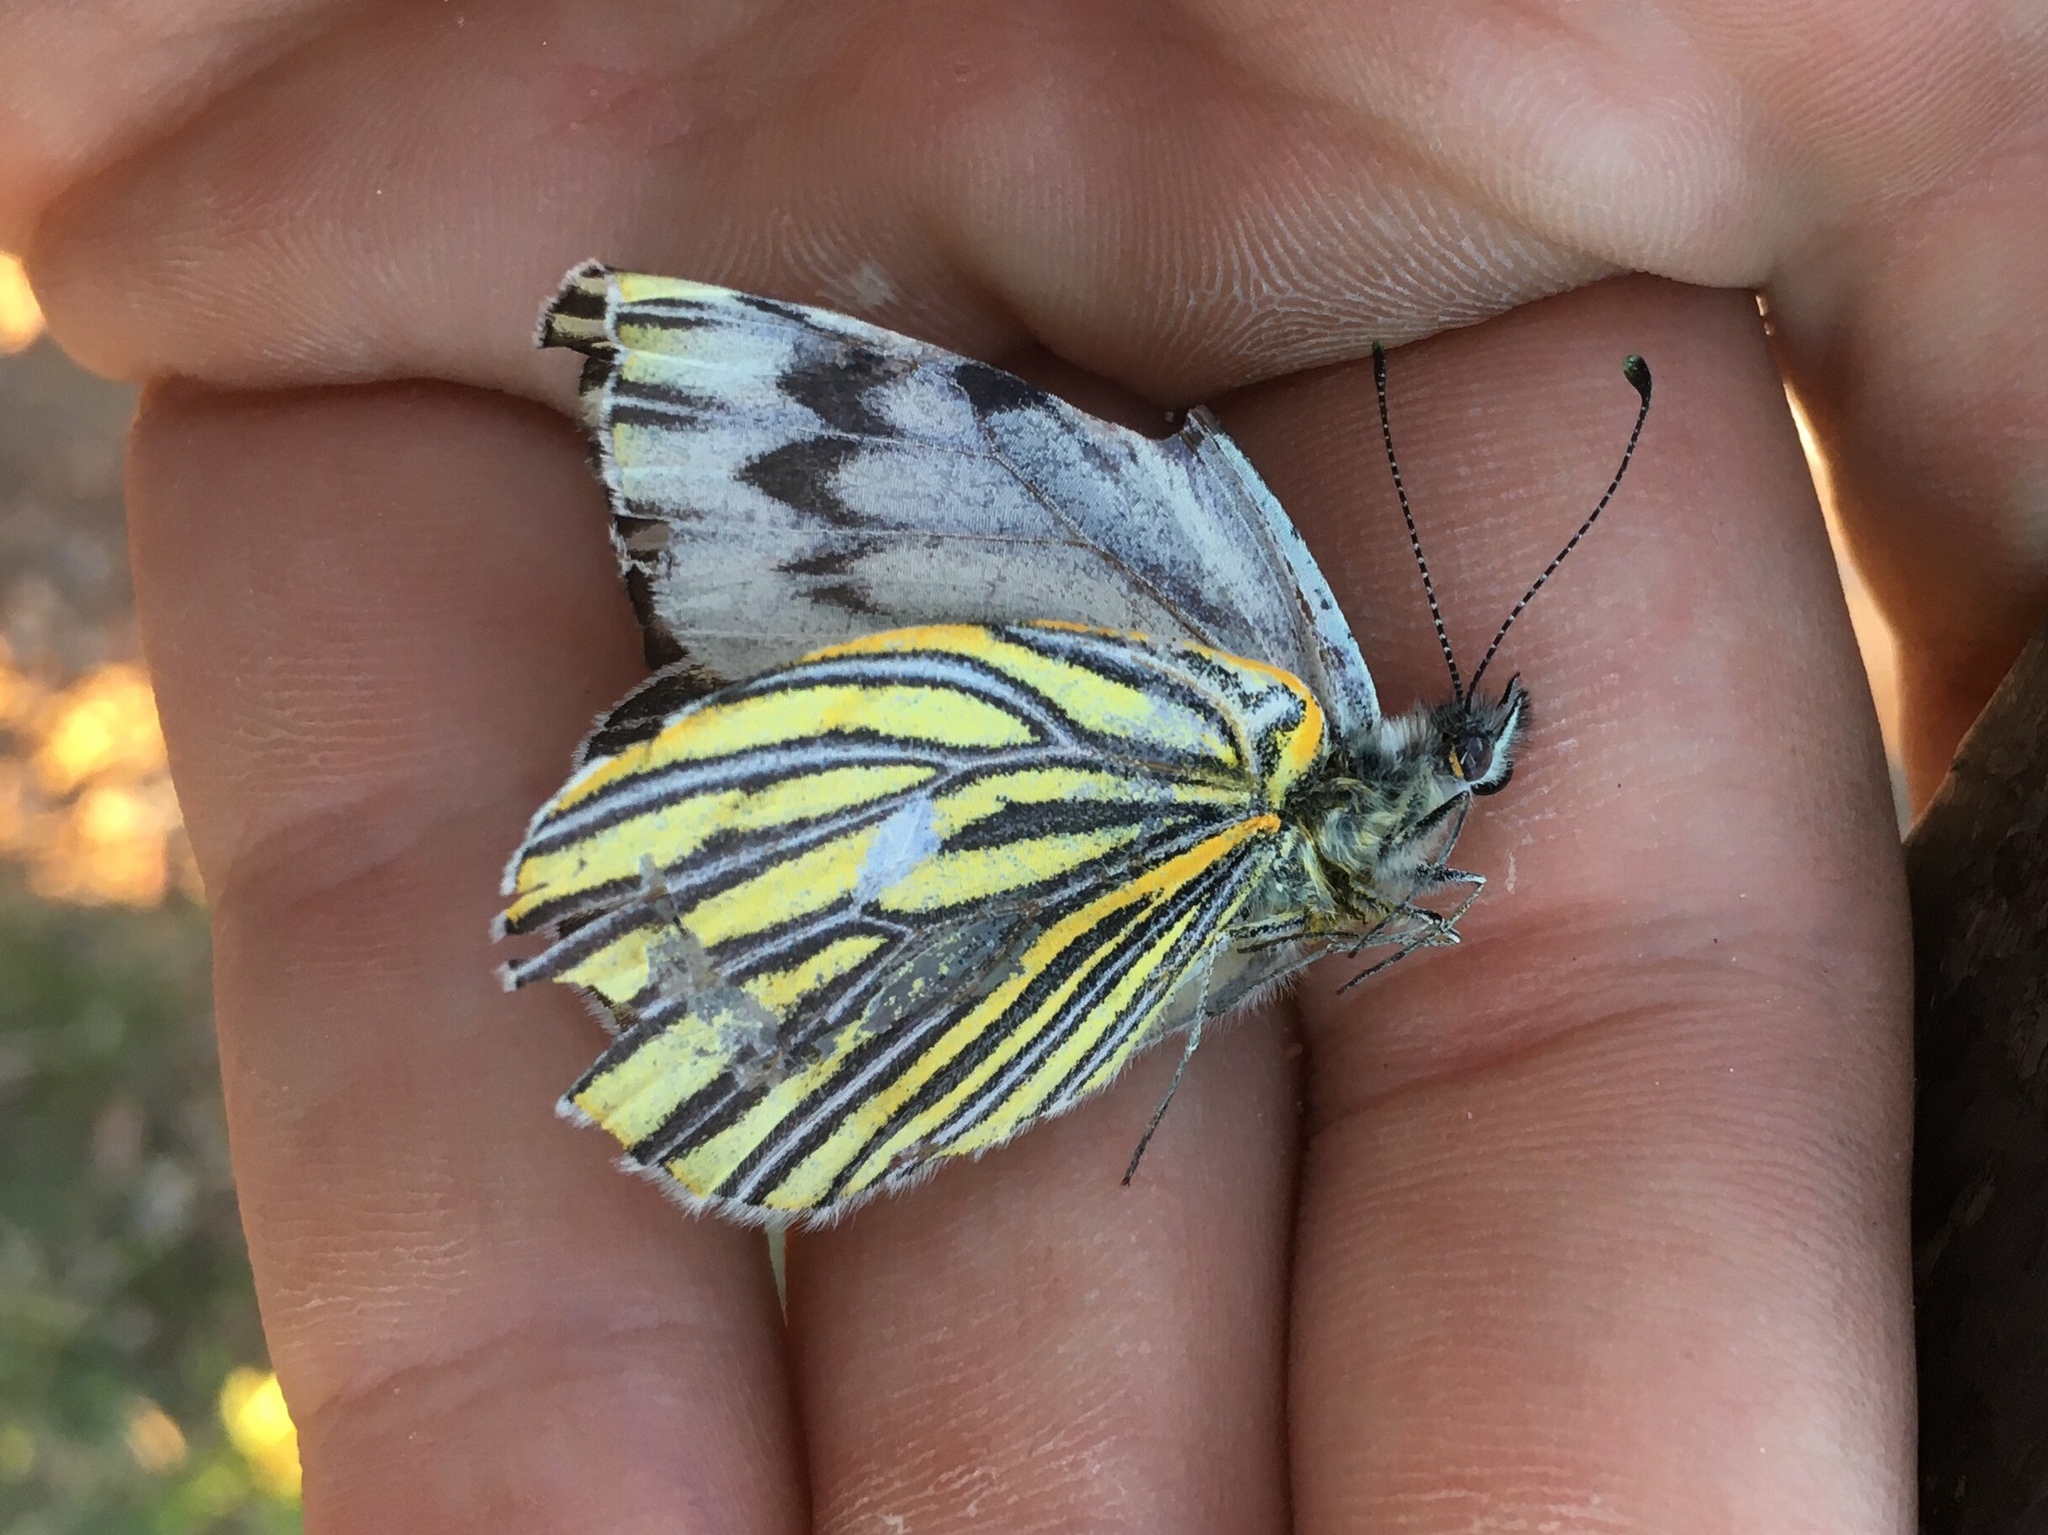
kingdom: Animalia
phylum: Arthropoda
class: Insecta
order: Lepidoptera
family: Pieridae
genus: Tatochila
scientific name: Tatochila mercedis
